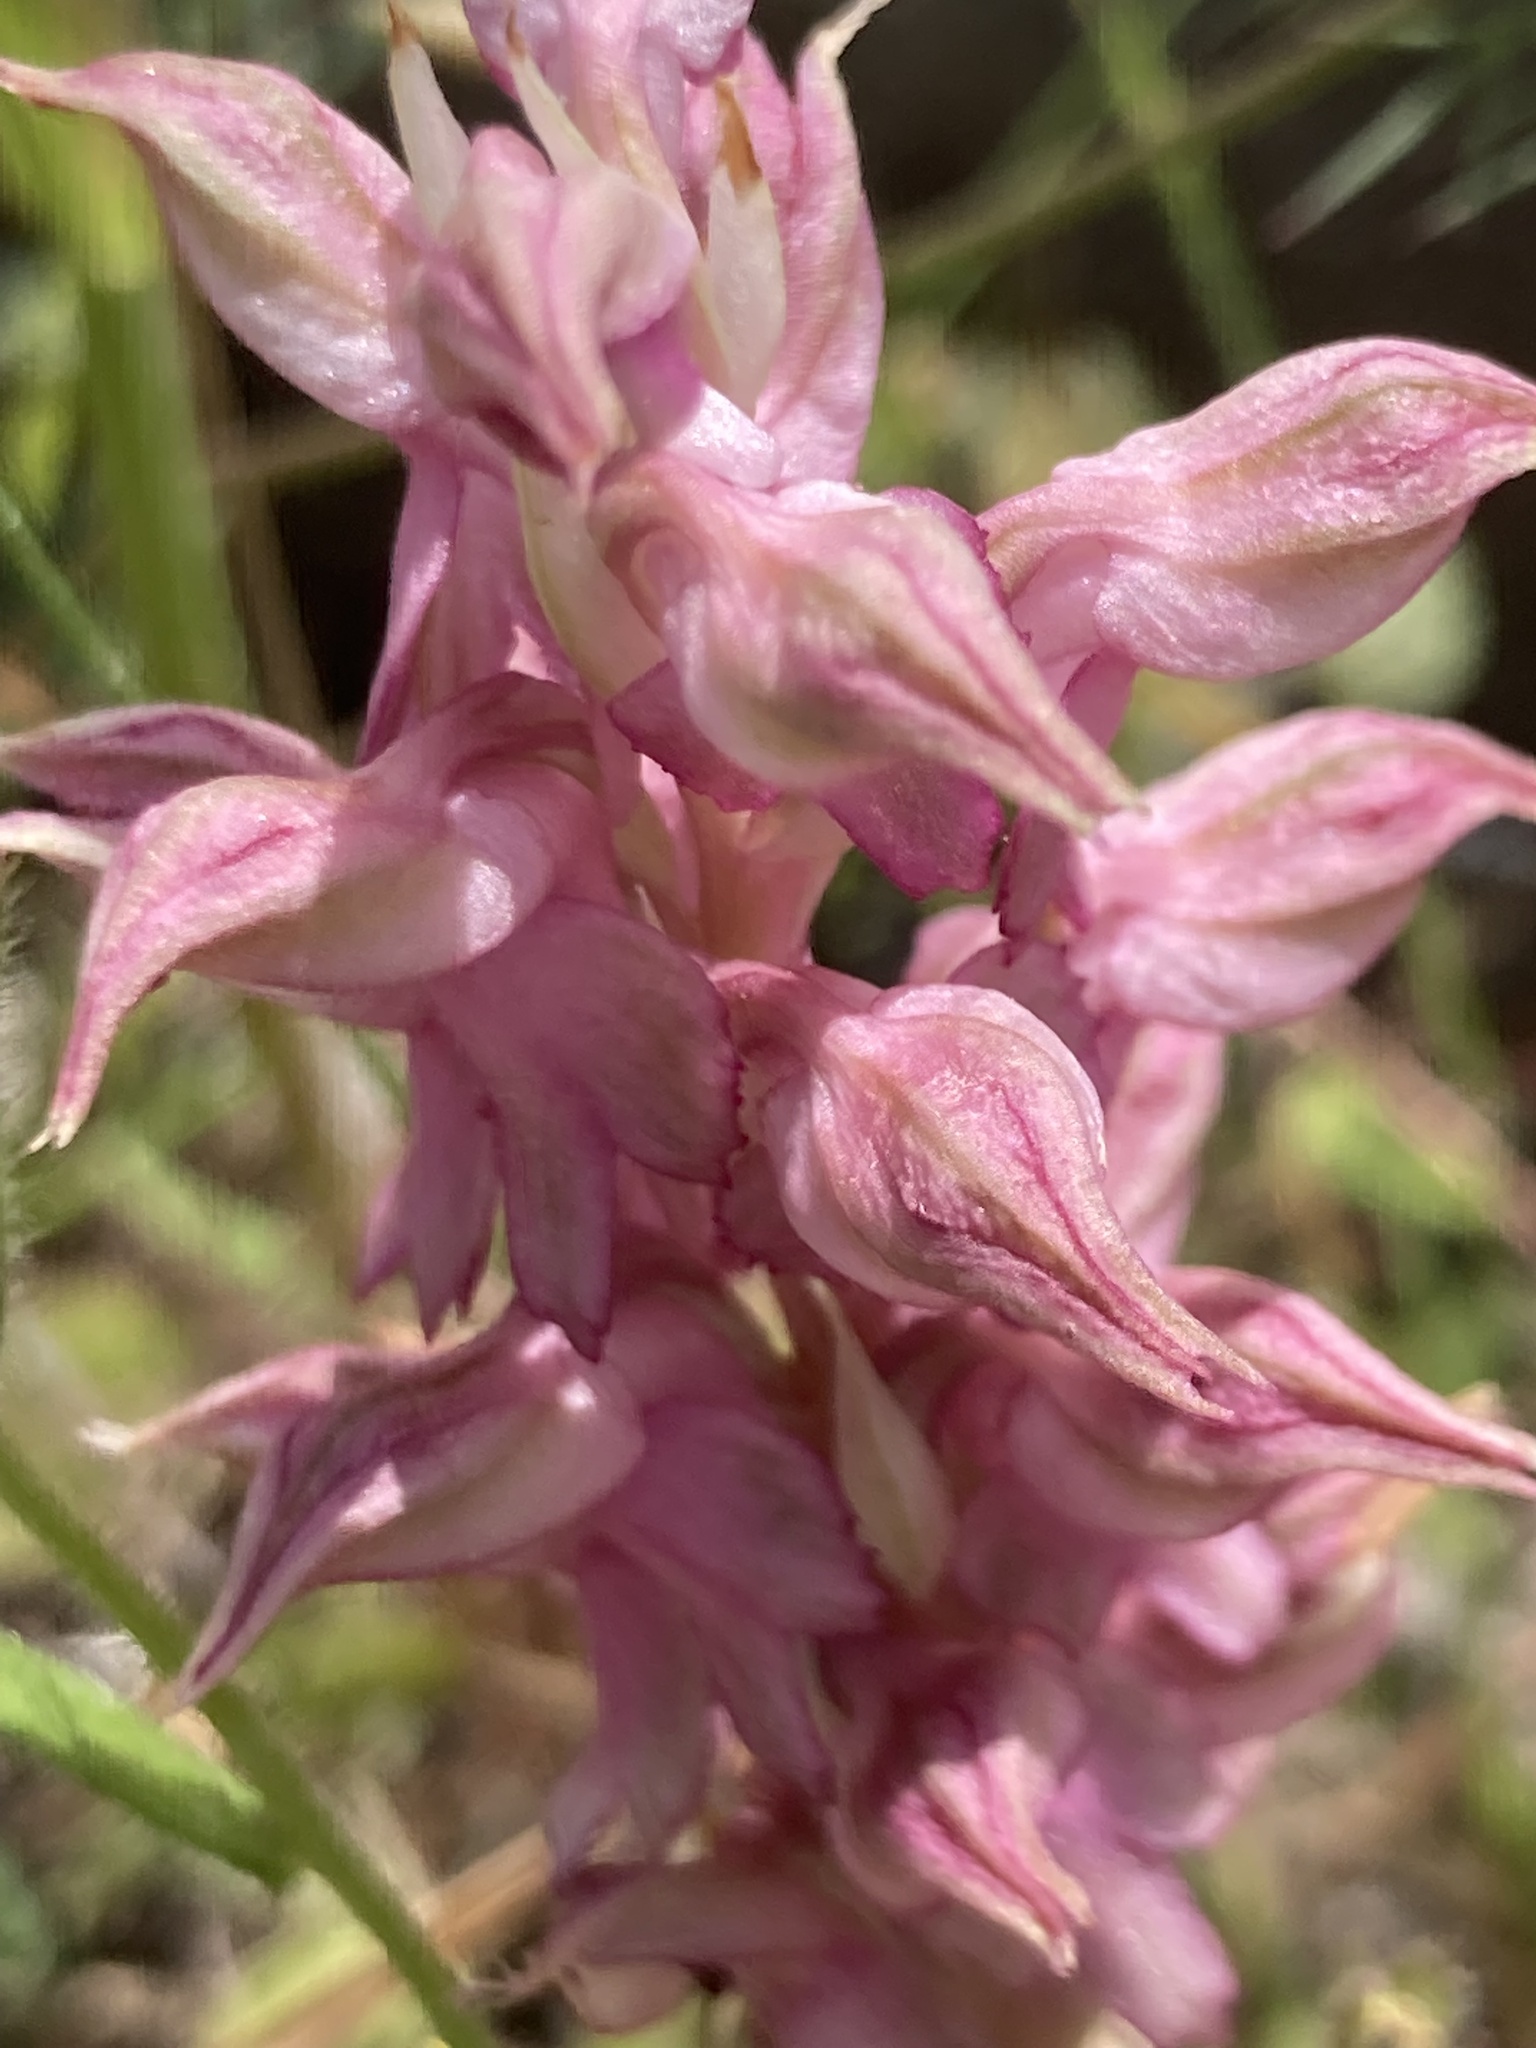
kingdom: Plantae
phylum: Tracheophyta
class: Liliopsida
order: Asparagales
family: Orchidaceae
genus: Anacamptis
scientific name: Anacamptis sancta
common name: Holy orchid
